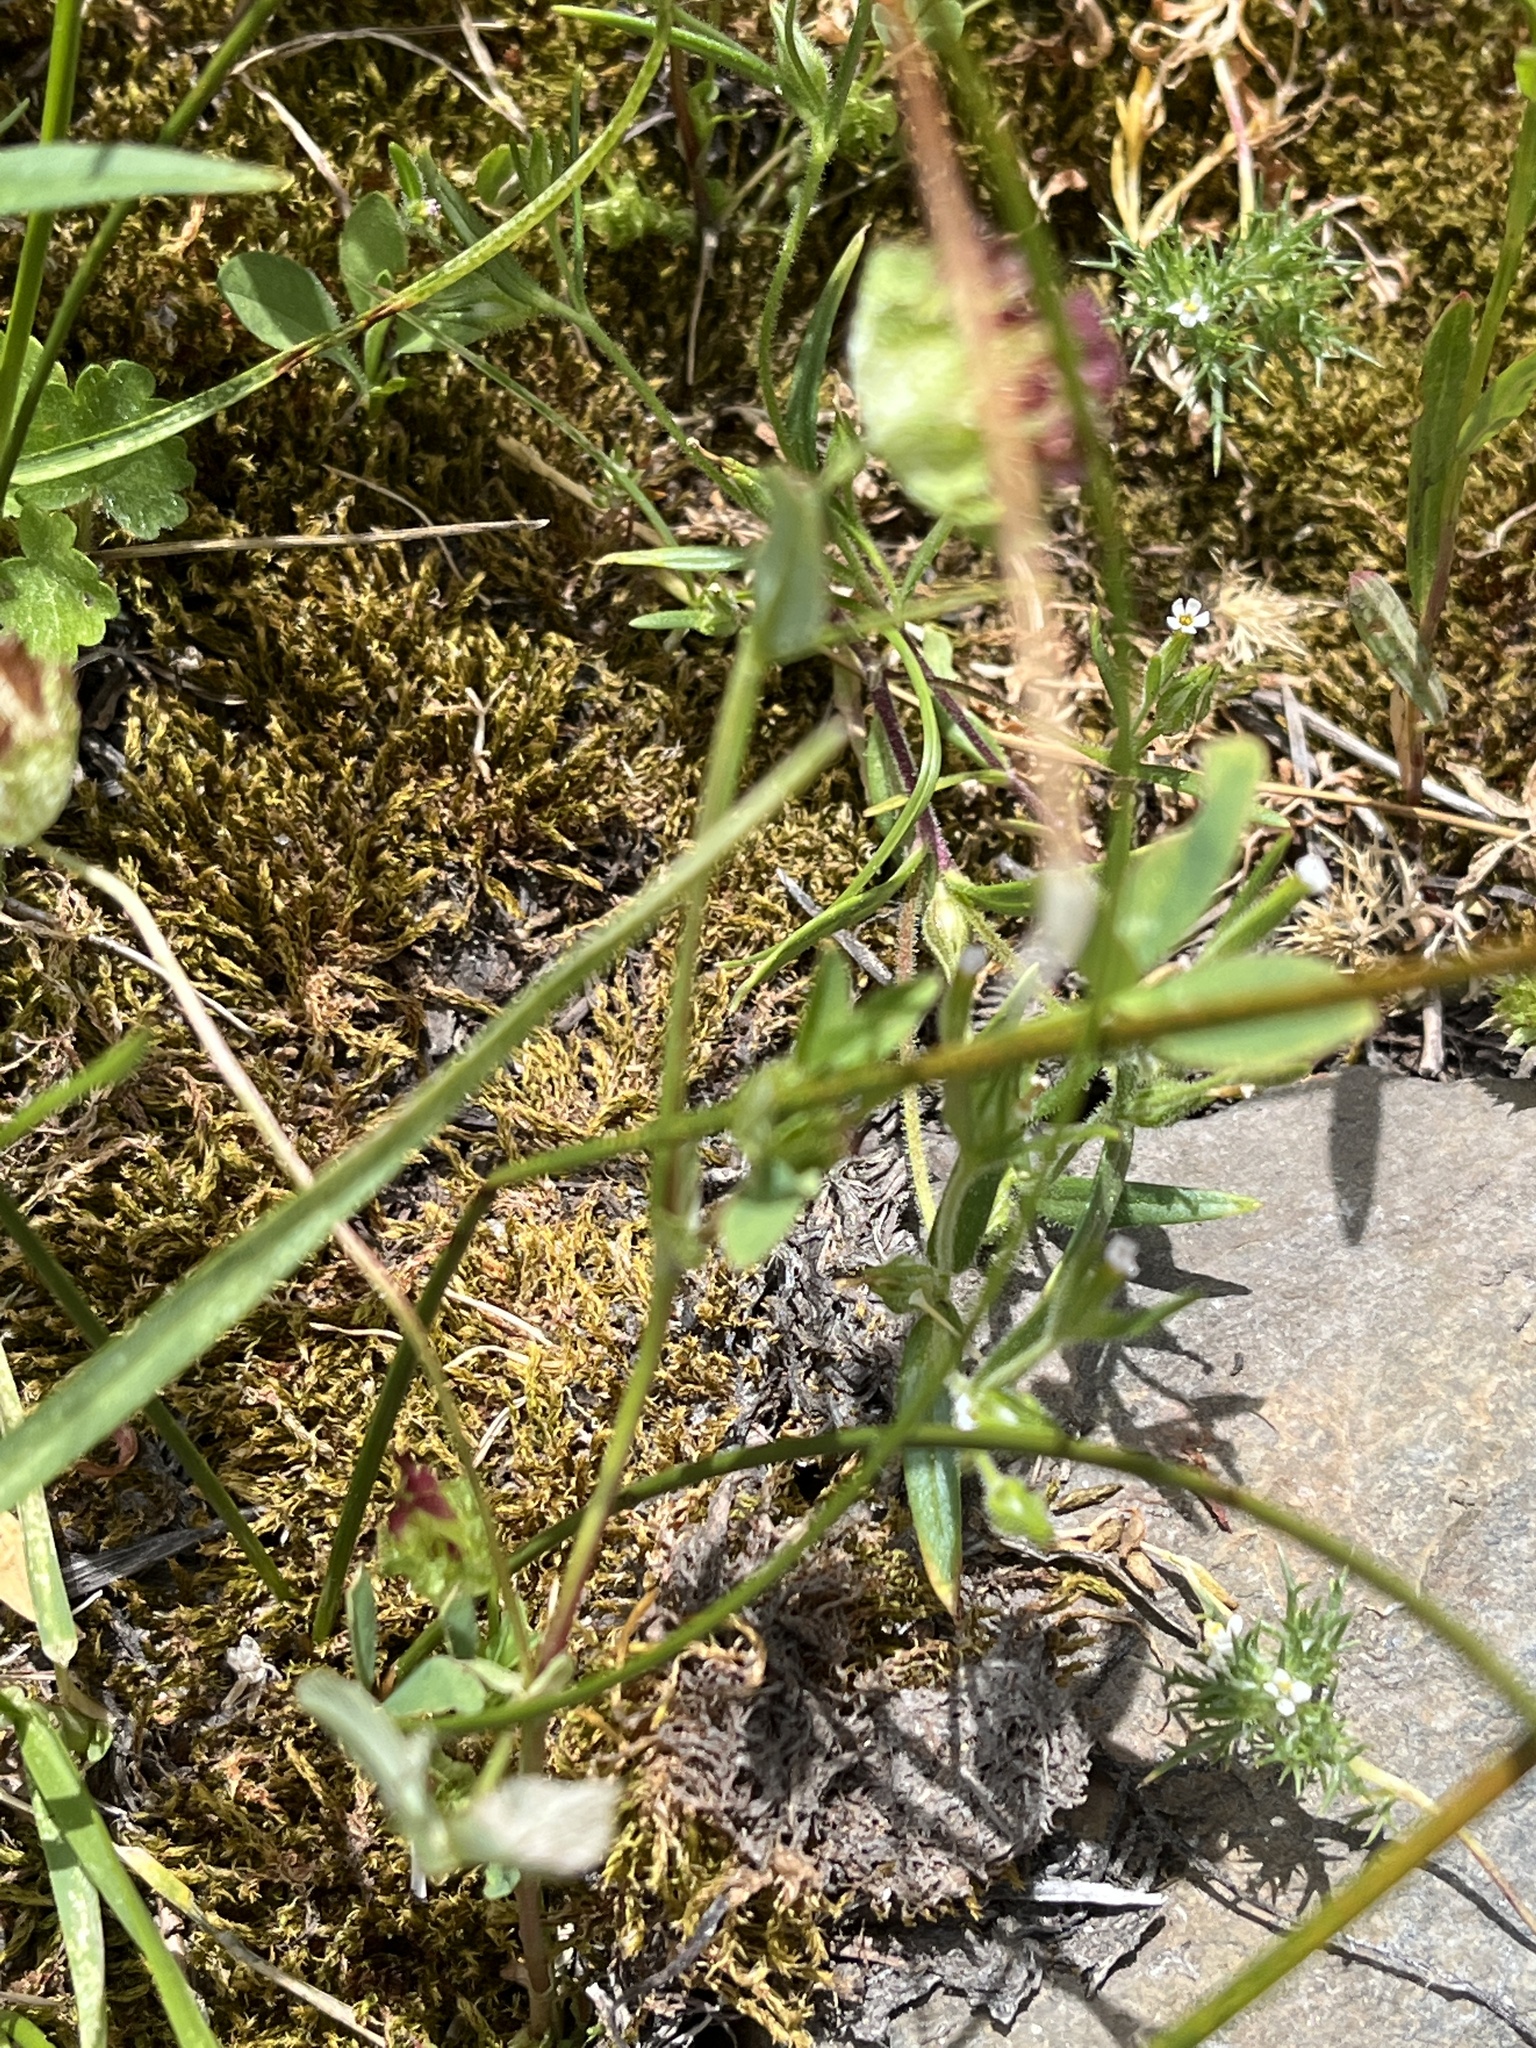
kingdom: Plantae
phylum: Tracheophyta
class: Magnoliopsida
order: Fabales
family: Fabaceae
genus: Trifolium
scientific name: Trifolium willdenovii
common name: Tomcat clover
